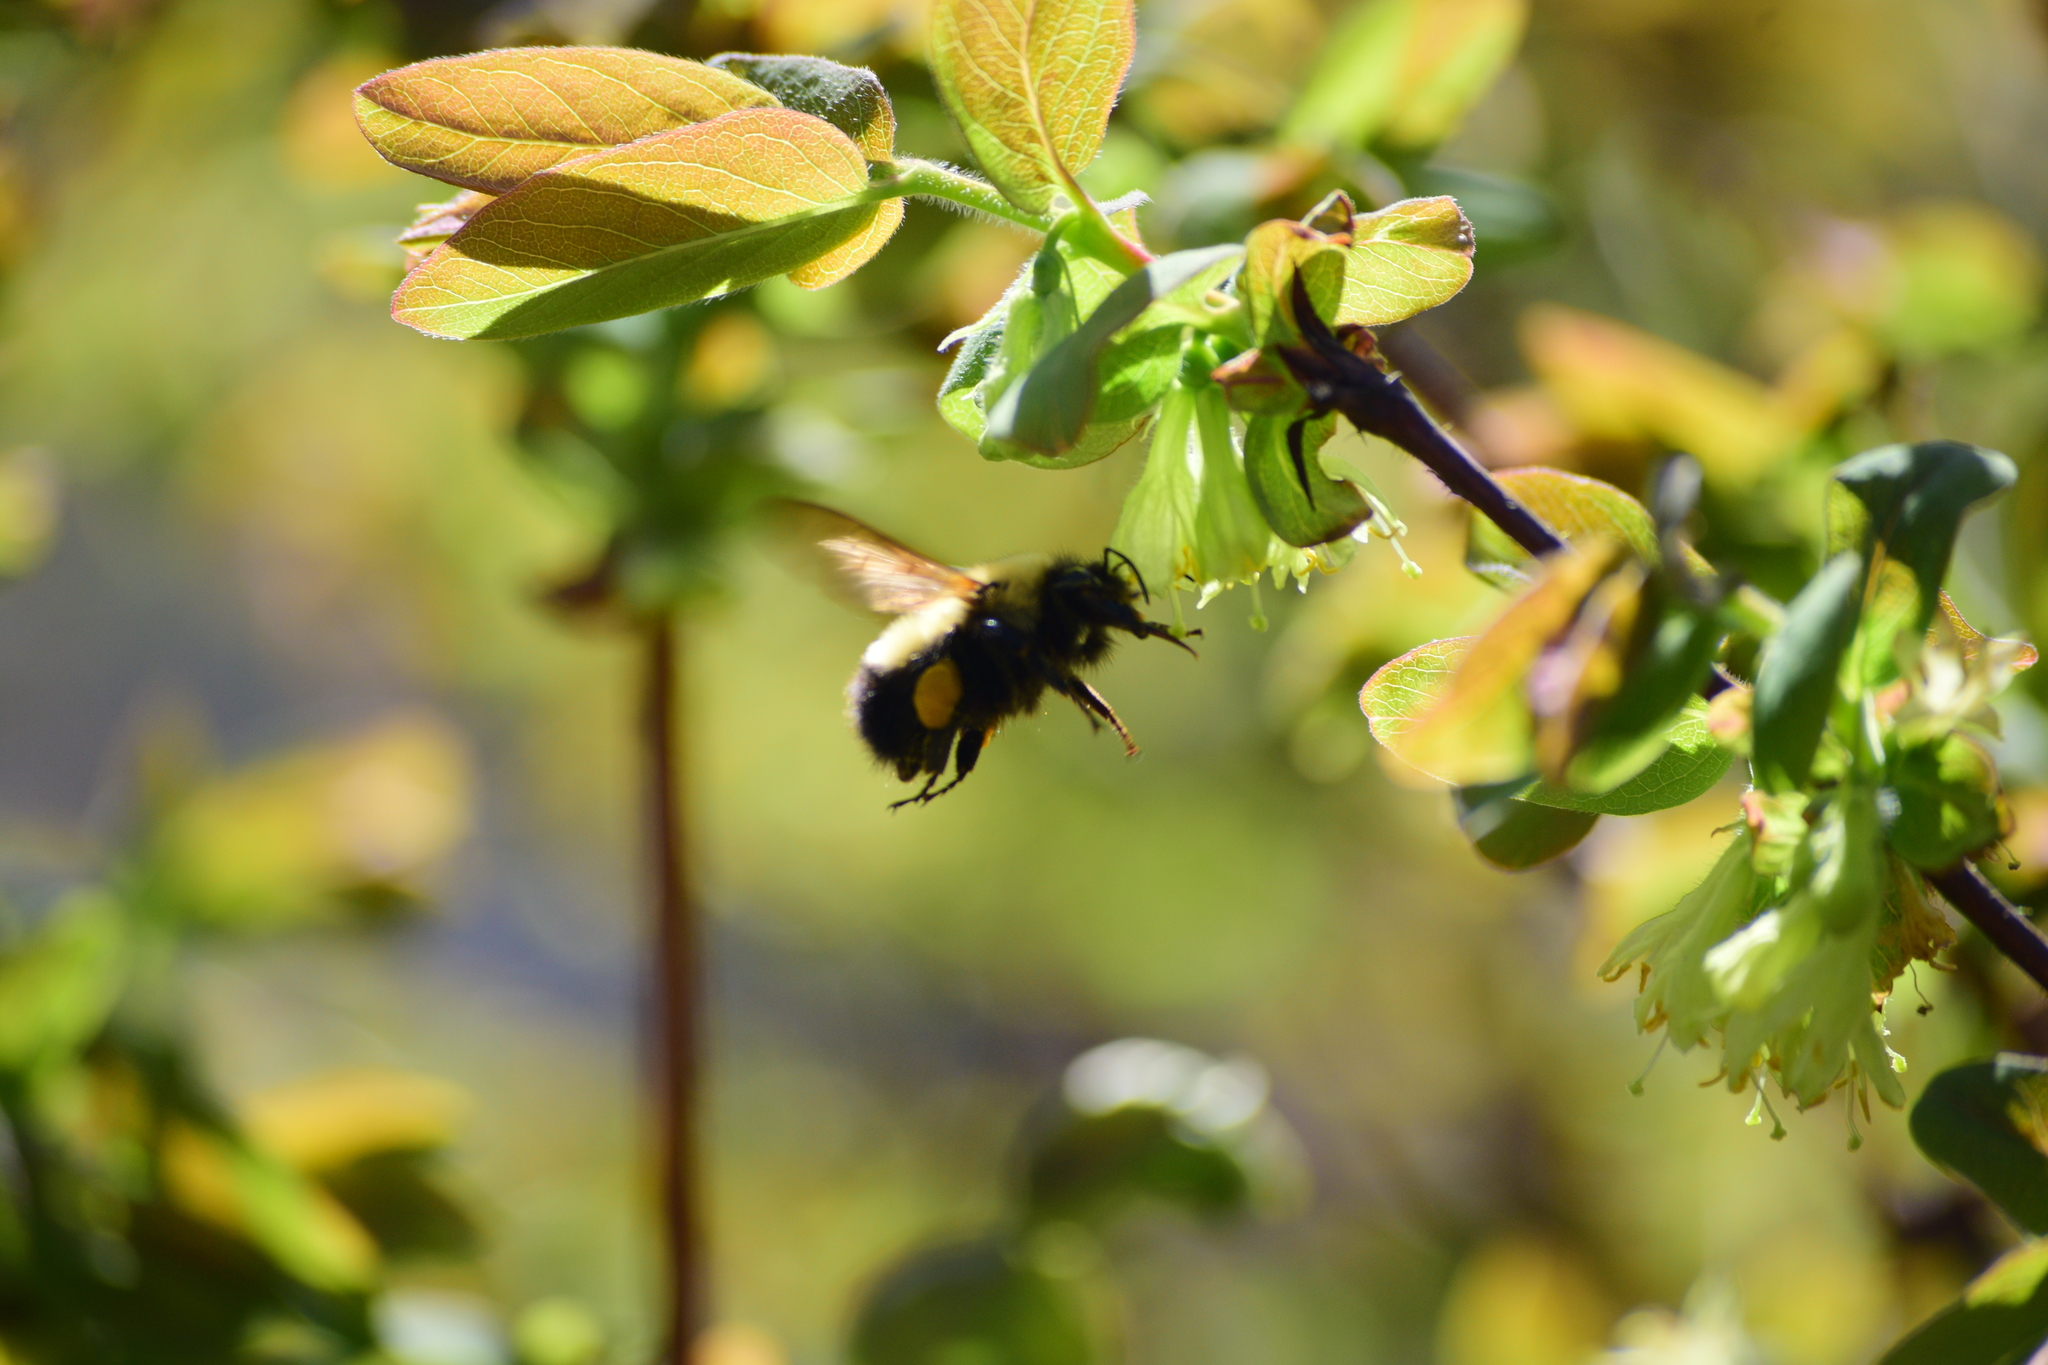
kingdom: Animalia
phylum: Arthropoda
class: Insecta
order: Hymenoptera
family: Apidae
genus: Pyrobombus
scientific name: Pyrobombus
